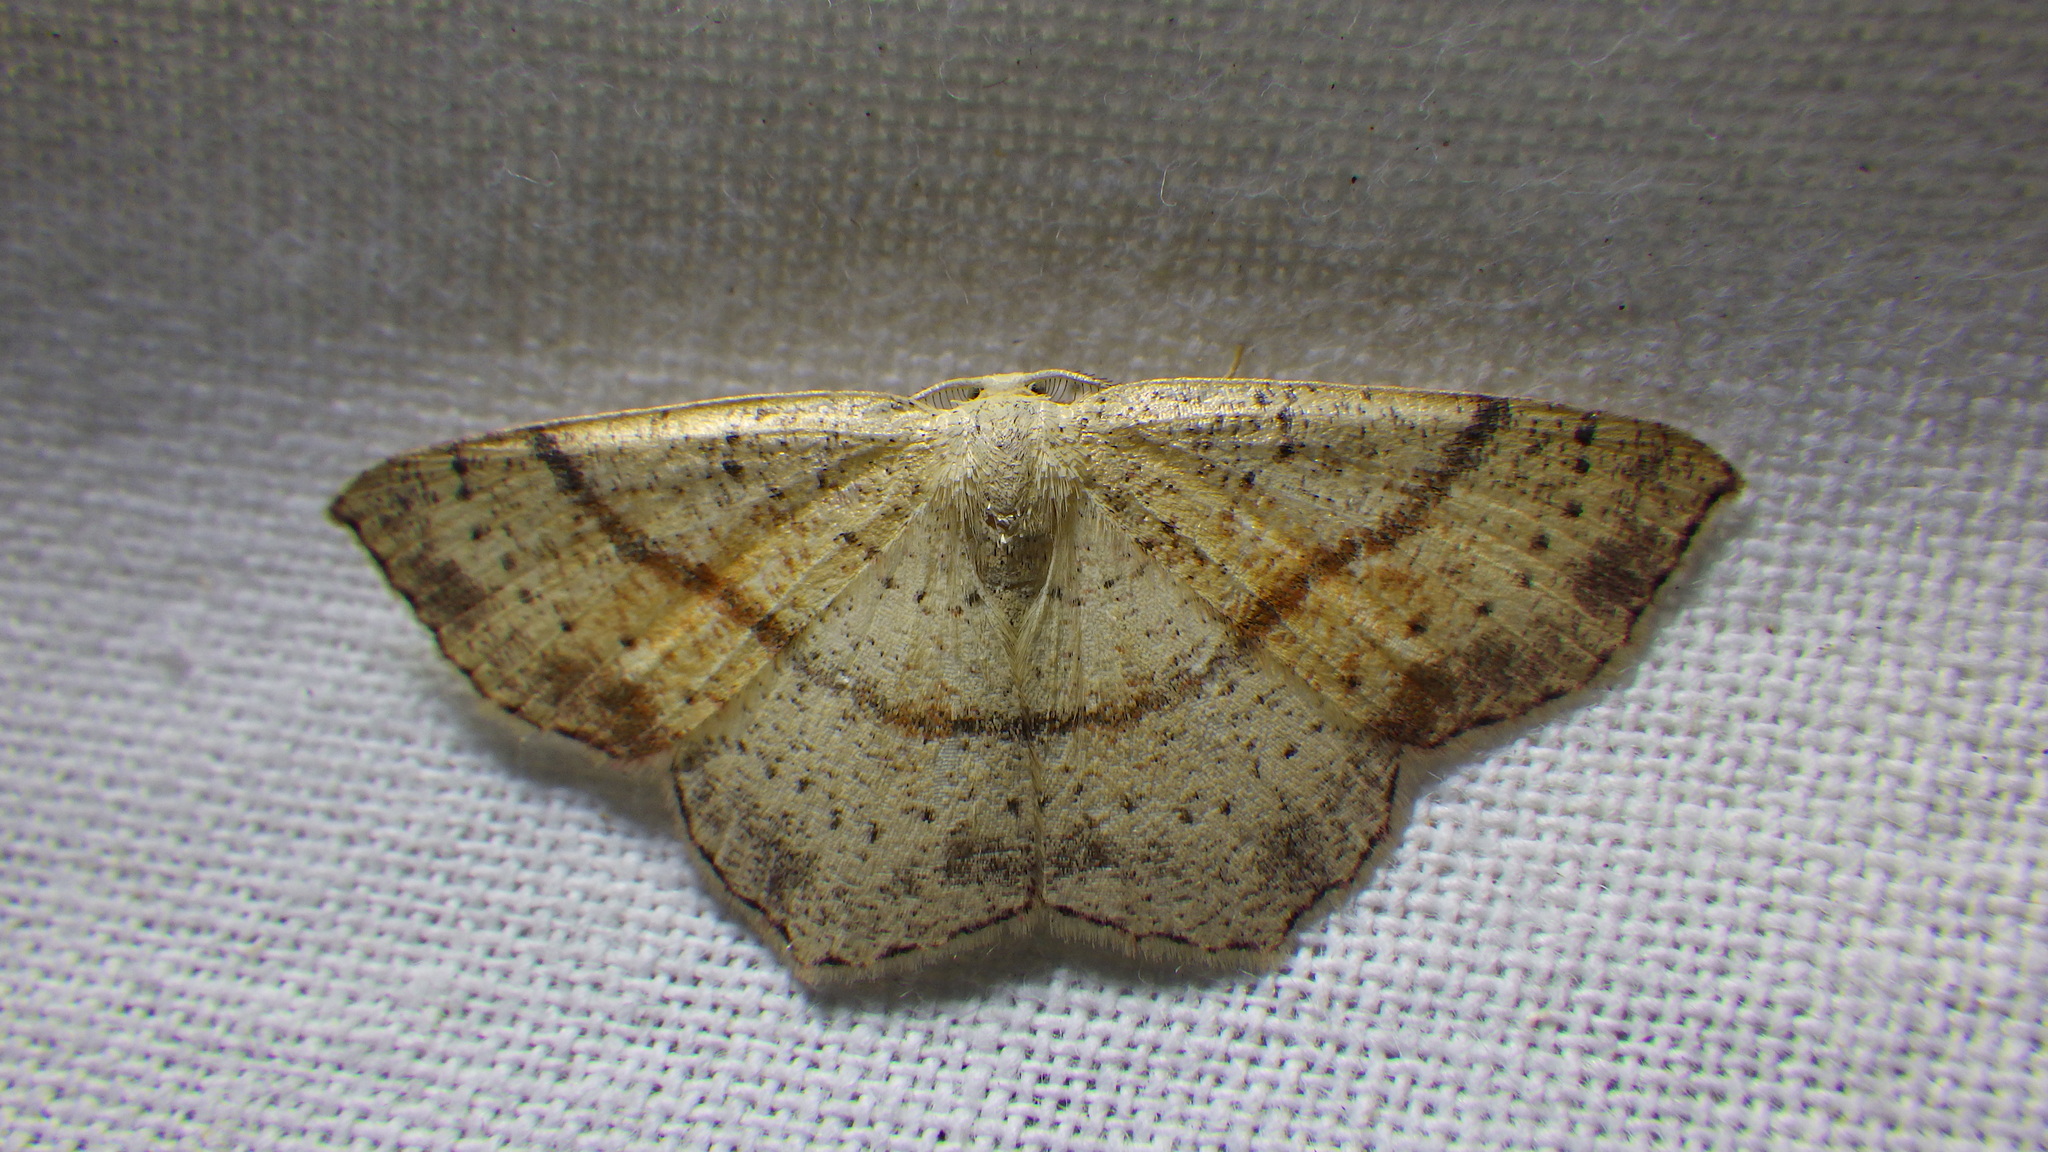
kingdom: Animalia
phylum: Arthropoda
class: Insecta
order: Lepidoptera
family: Geometridae
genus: Cyclophora
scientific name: Cyclophora punctaria
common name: Maiden's blush
